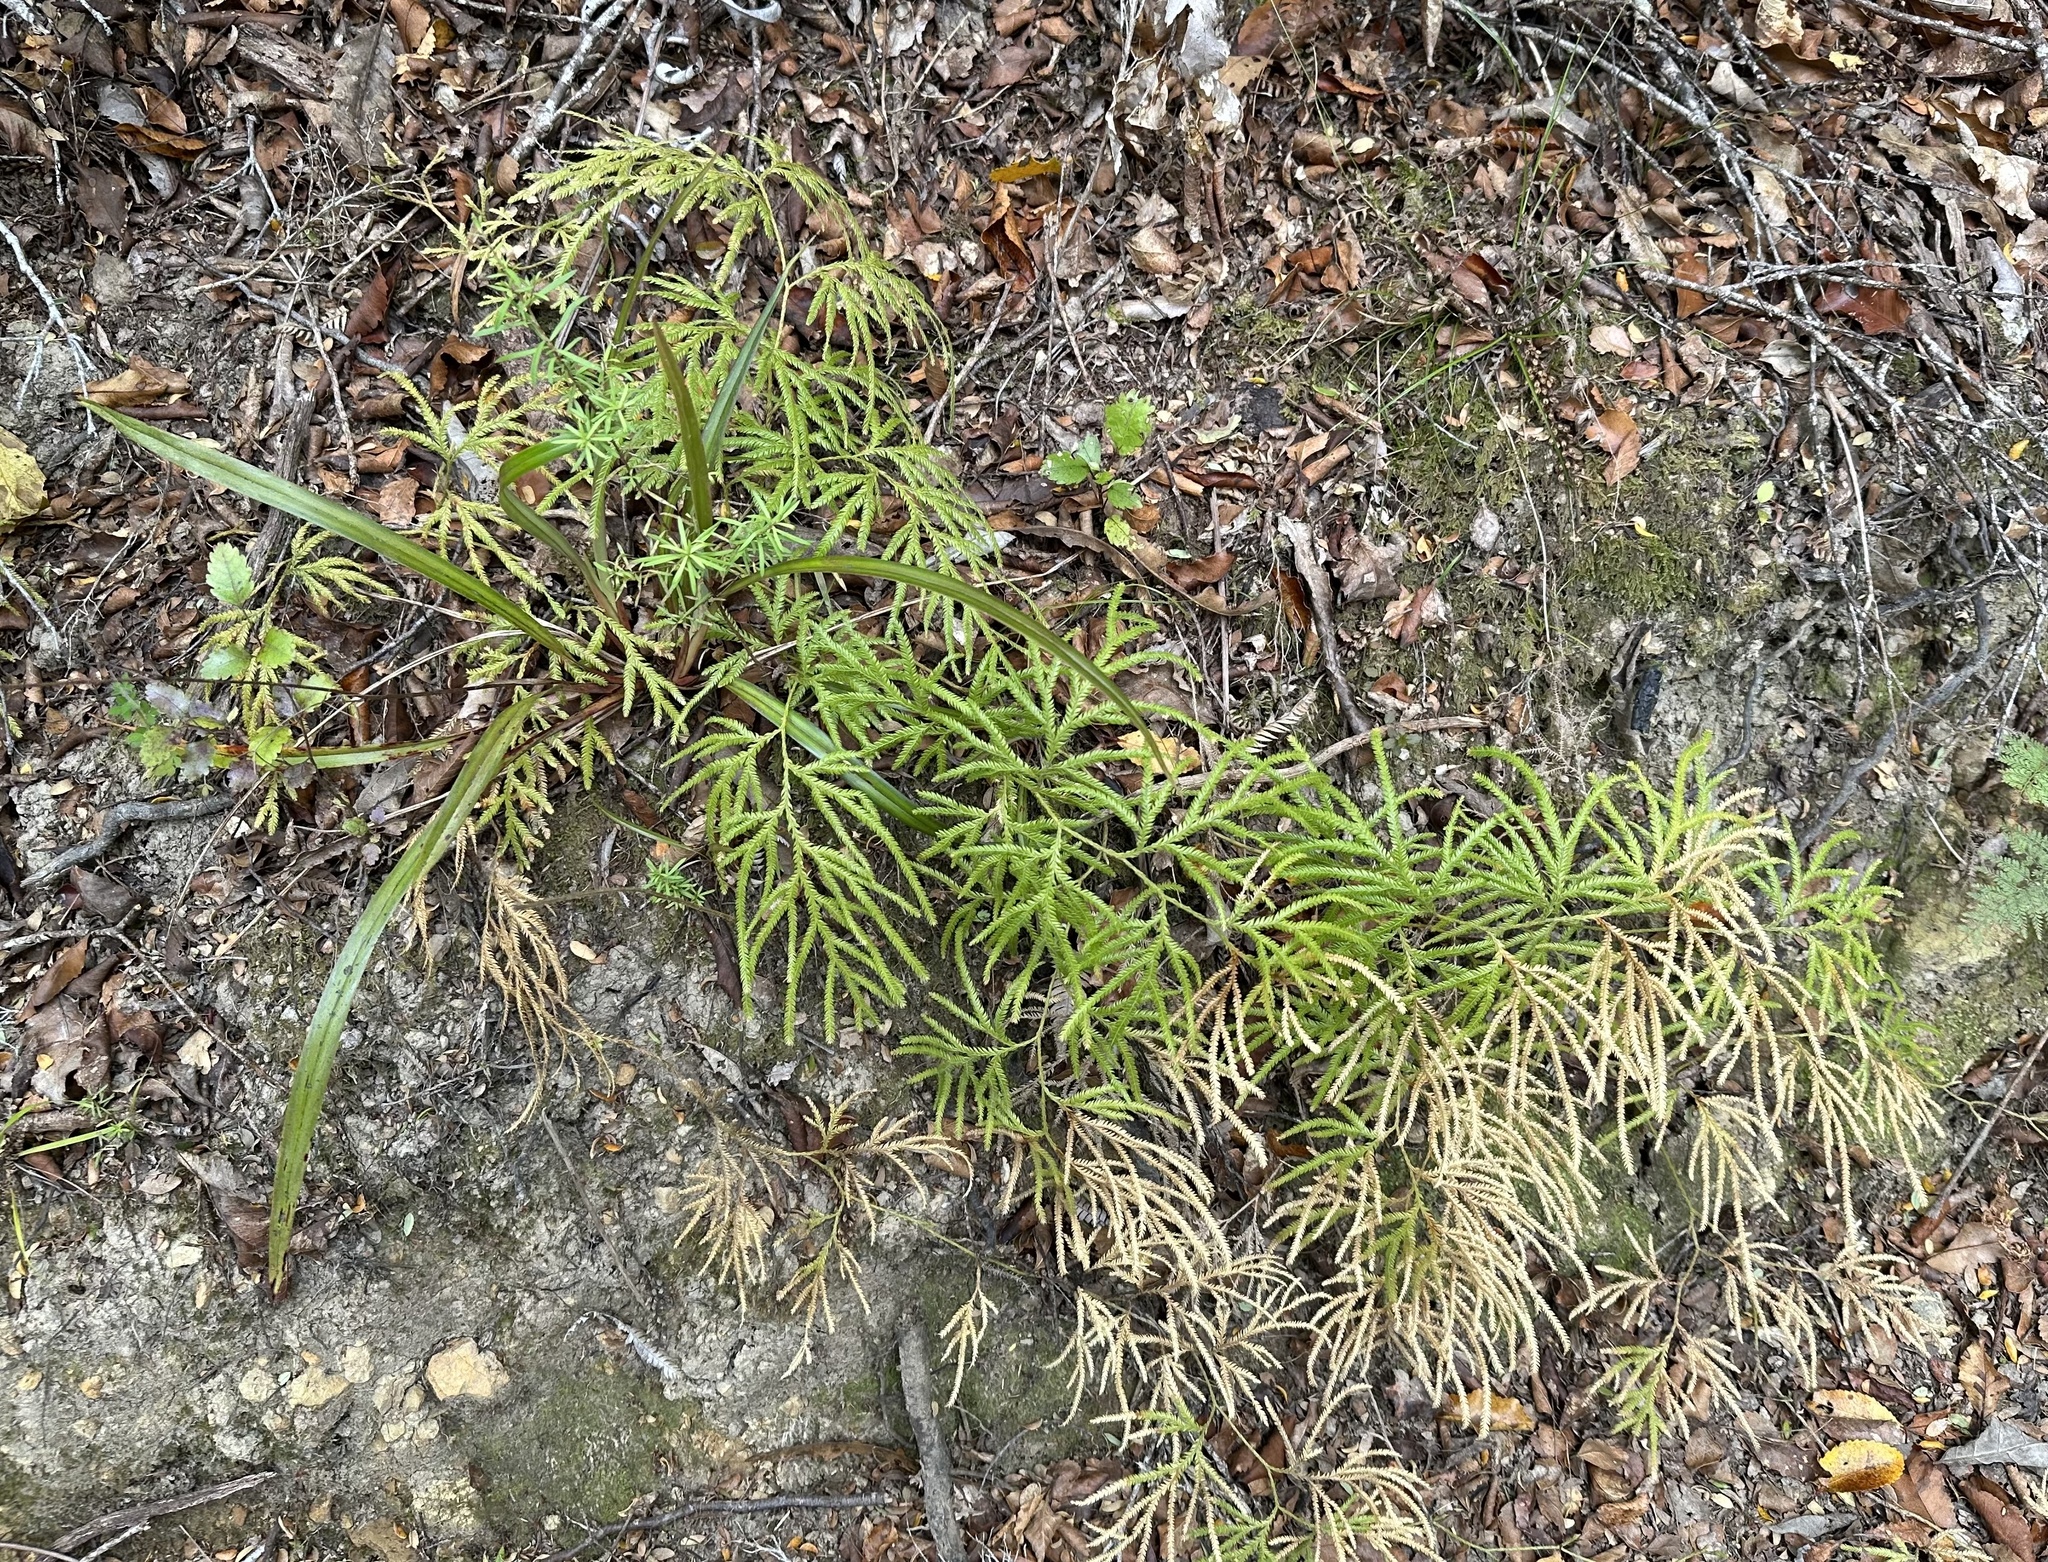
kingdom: Plantae
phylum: Tracheophyta
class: Lycopodiopsida
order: Lycopodiales
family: Lycopodiaceae
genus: Lycopodium
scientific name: Lycopodium volubile
